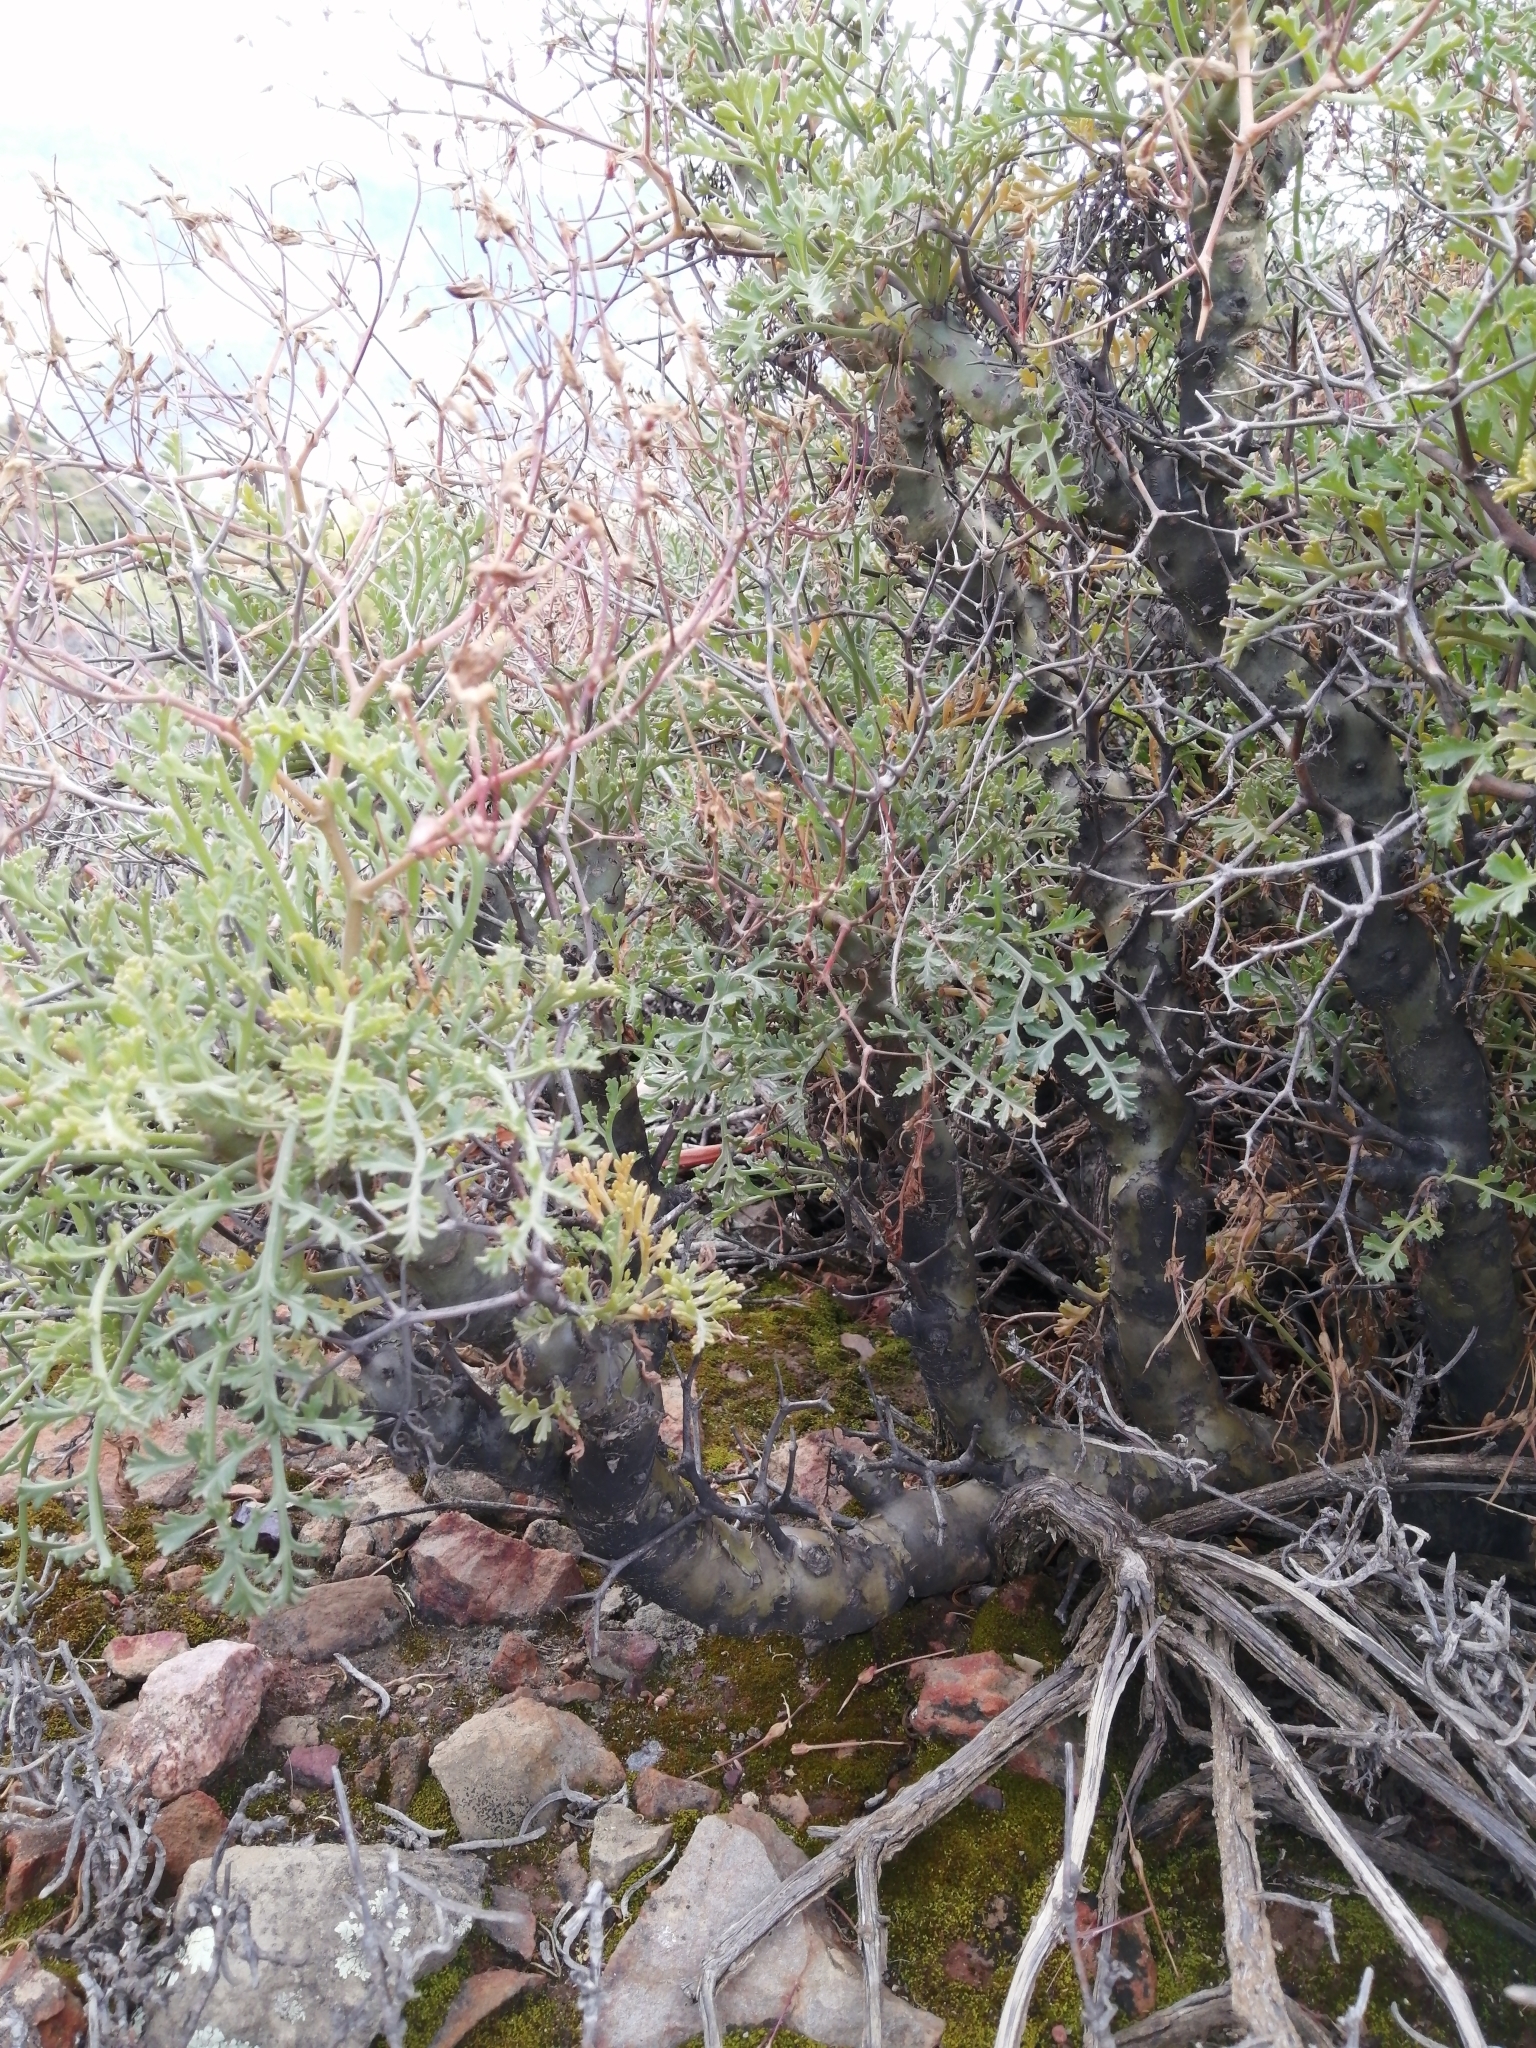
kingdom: Plantae
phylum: Tracheophyta
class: Magnoliopsida
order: Geraniales
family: Geraniaceae
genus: Pelargonium
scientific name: Pelargonium crithmifolium
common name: Samphire-leaf pelargonium
